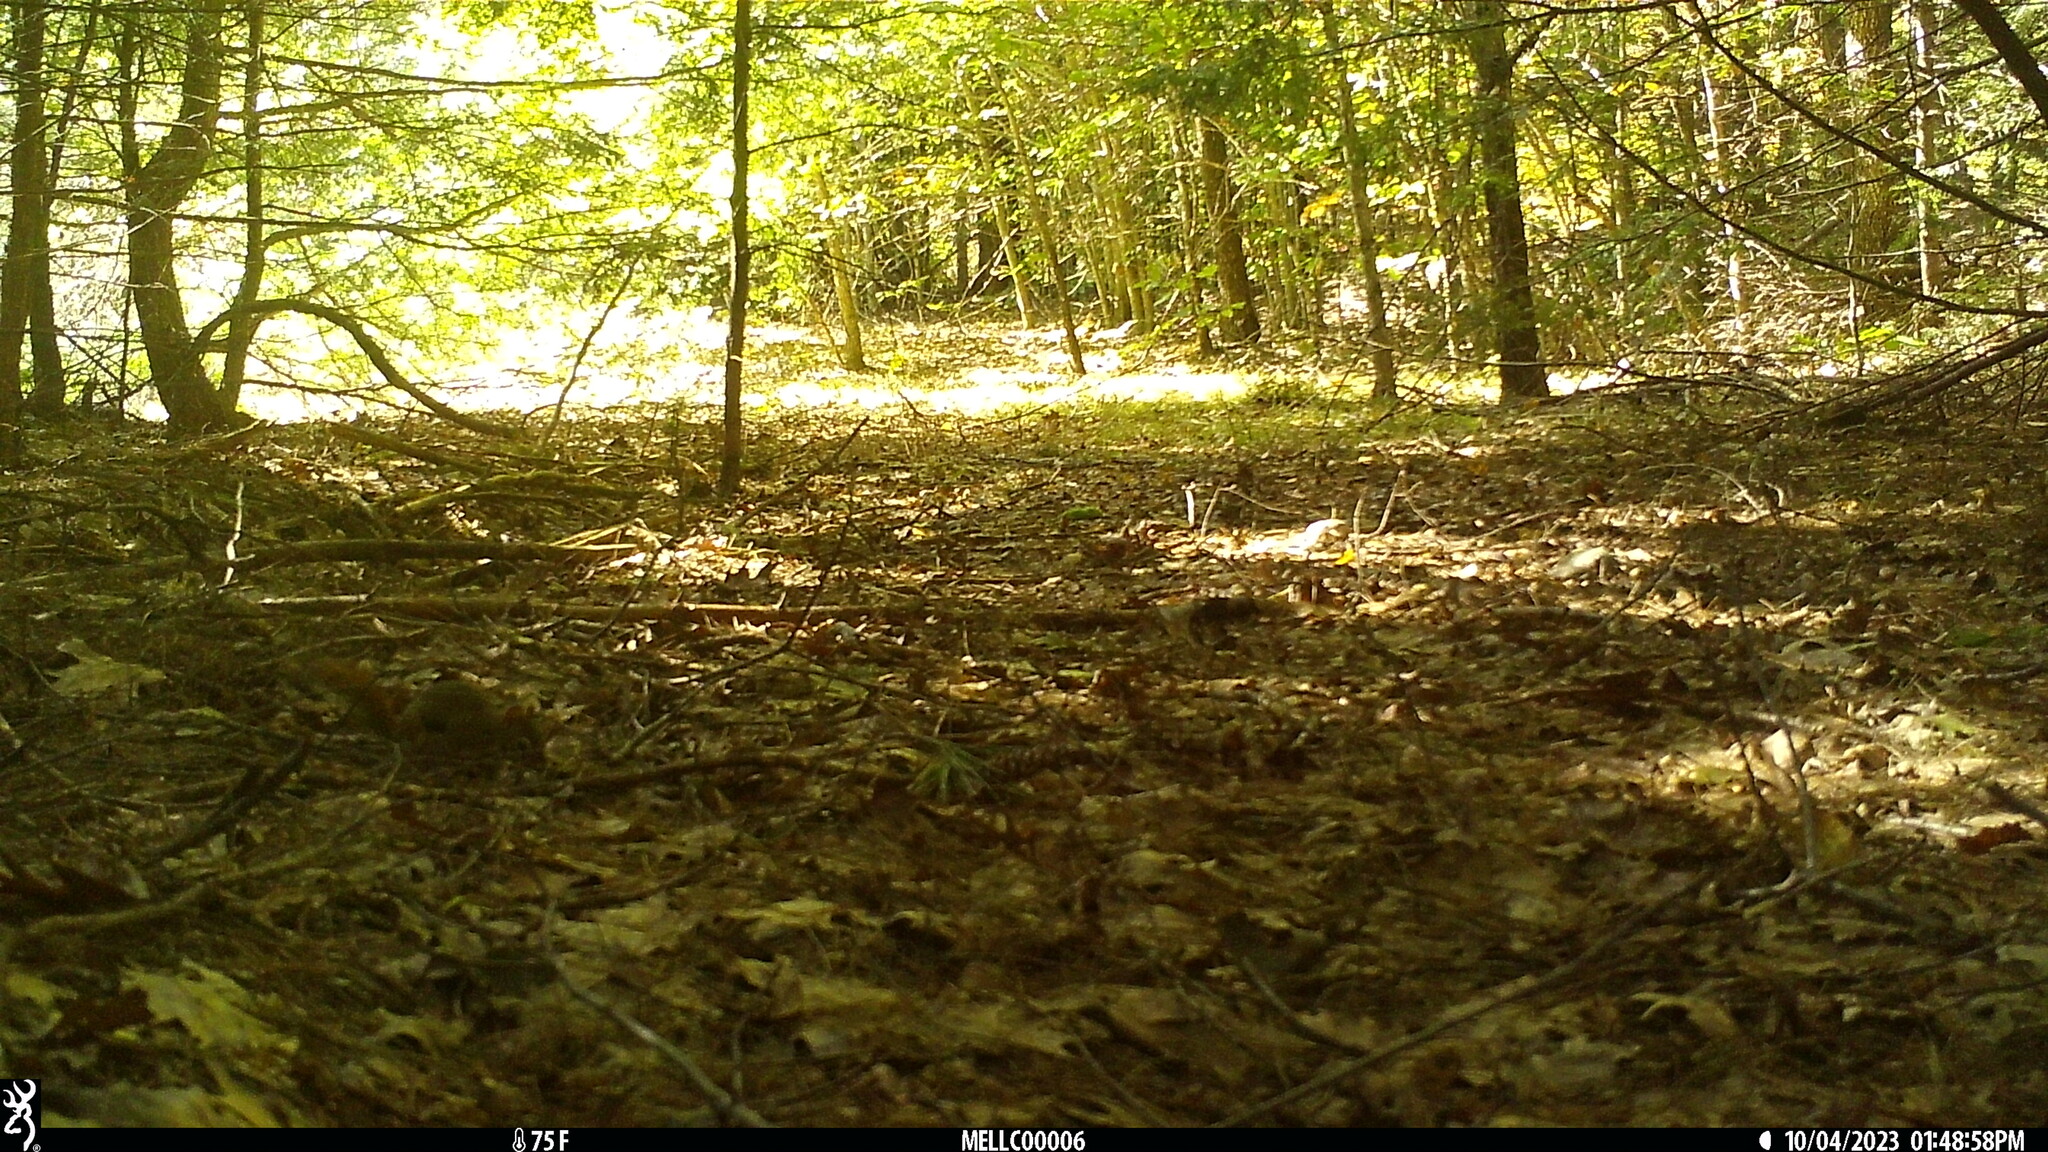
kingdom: Animalia
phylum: Chordata
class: Mammalia
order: Rodentia
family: Sciuridae
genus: Tamiasciurus
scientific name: Tamiasciurus hudsonicus
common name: Red squirrel
